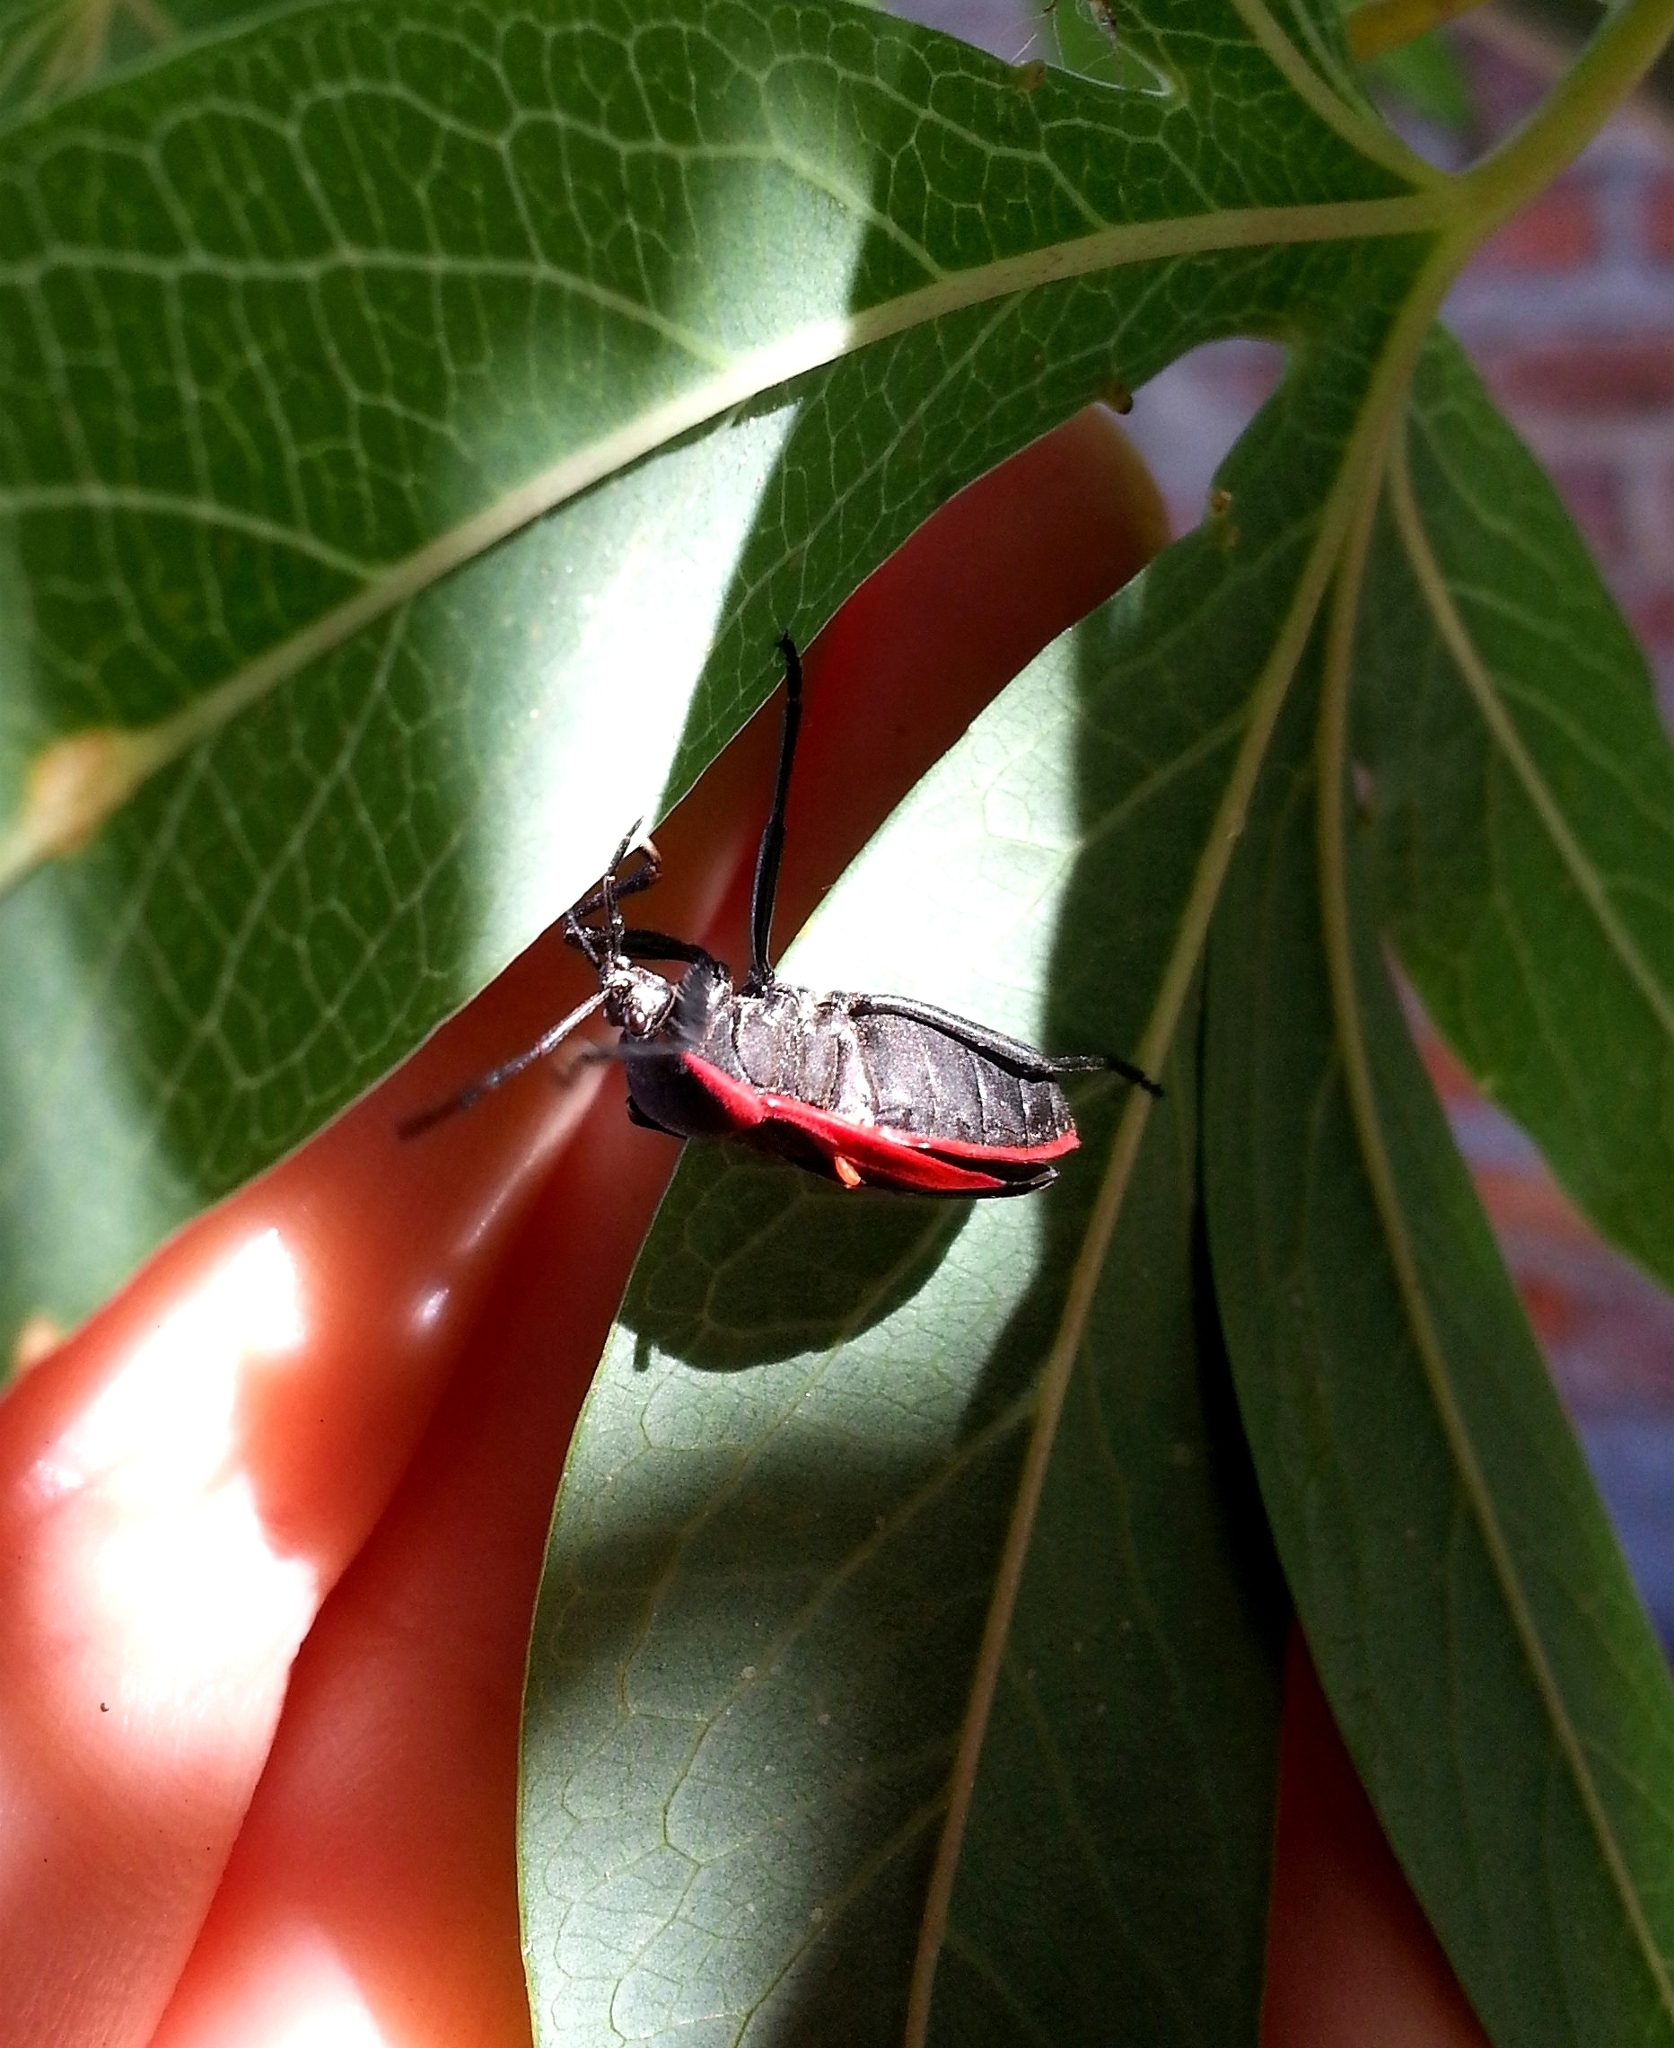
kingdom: Animalia
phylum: Arthropoda
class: Insecta
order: Hemiptera
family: Largidae
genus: Largus
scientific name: Largus rufipennis
